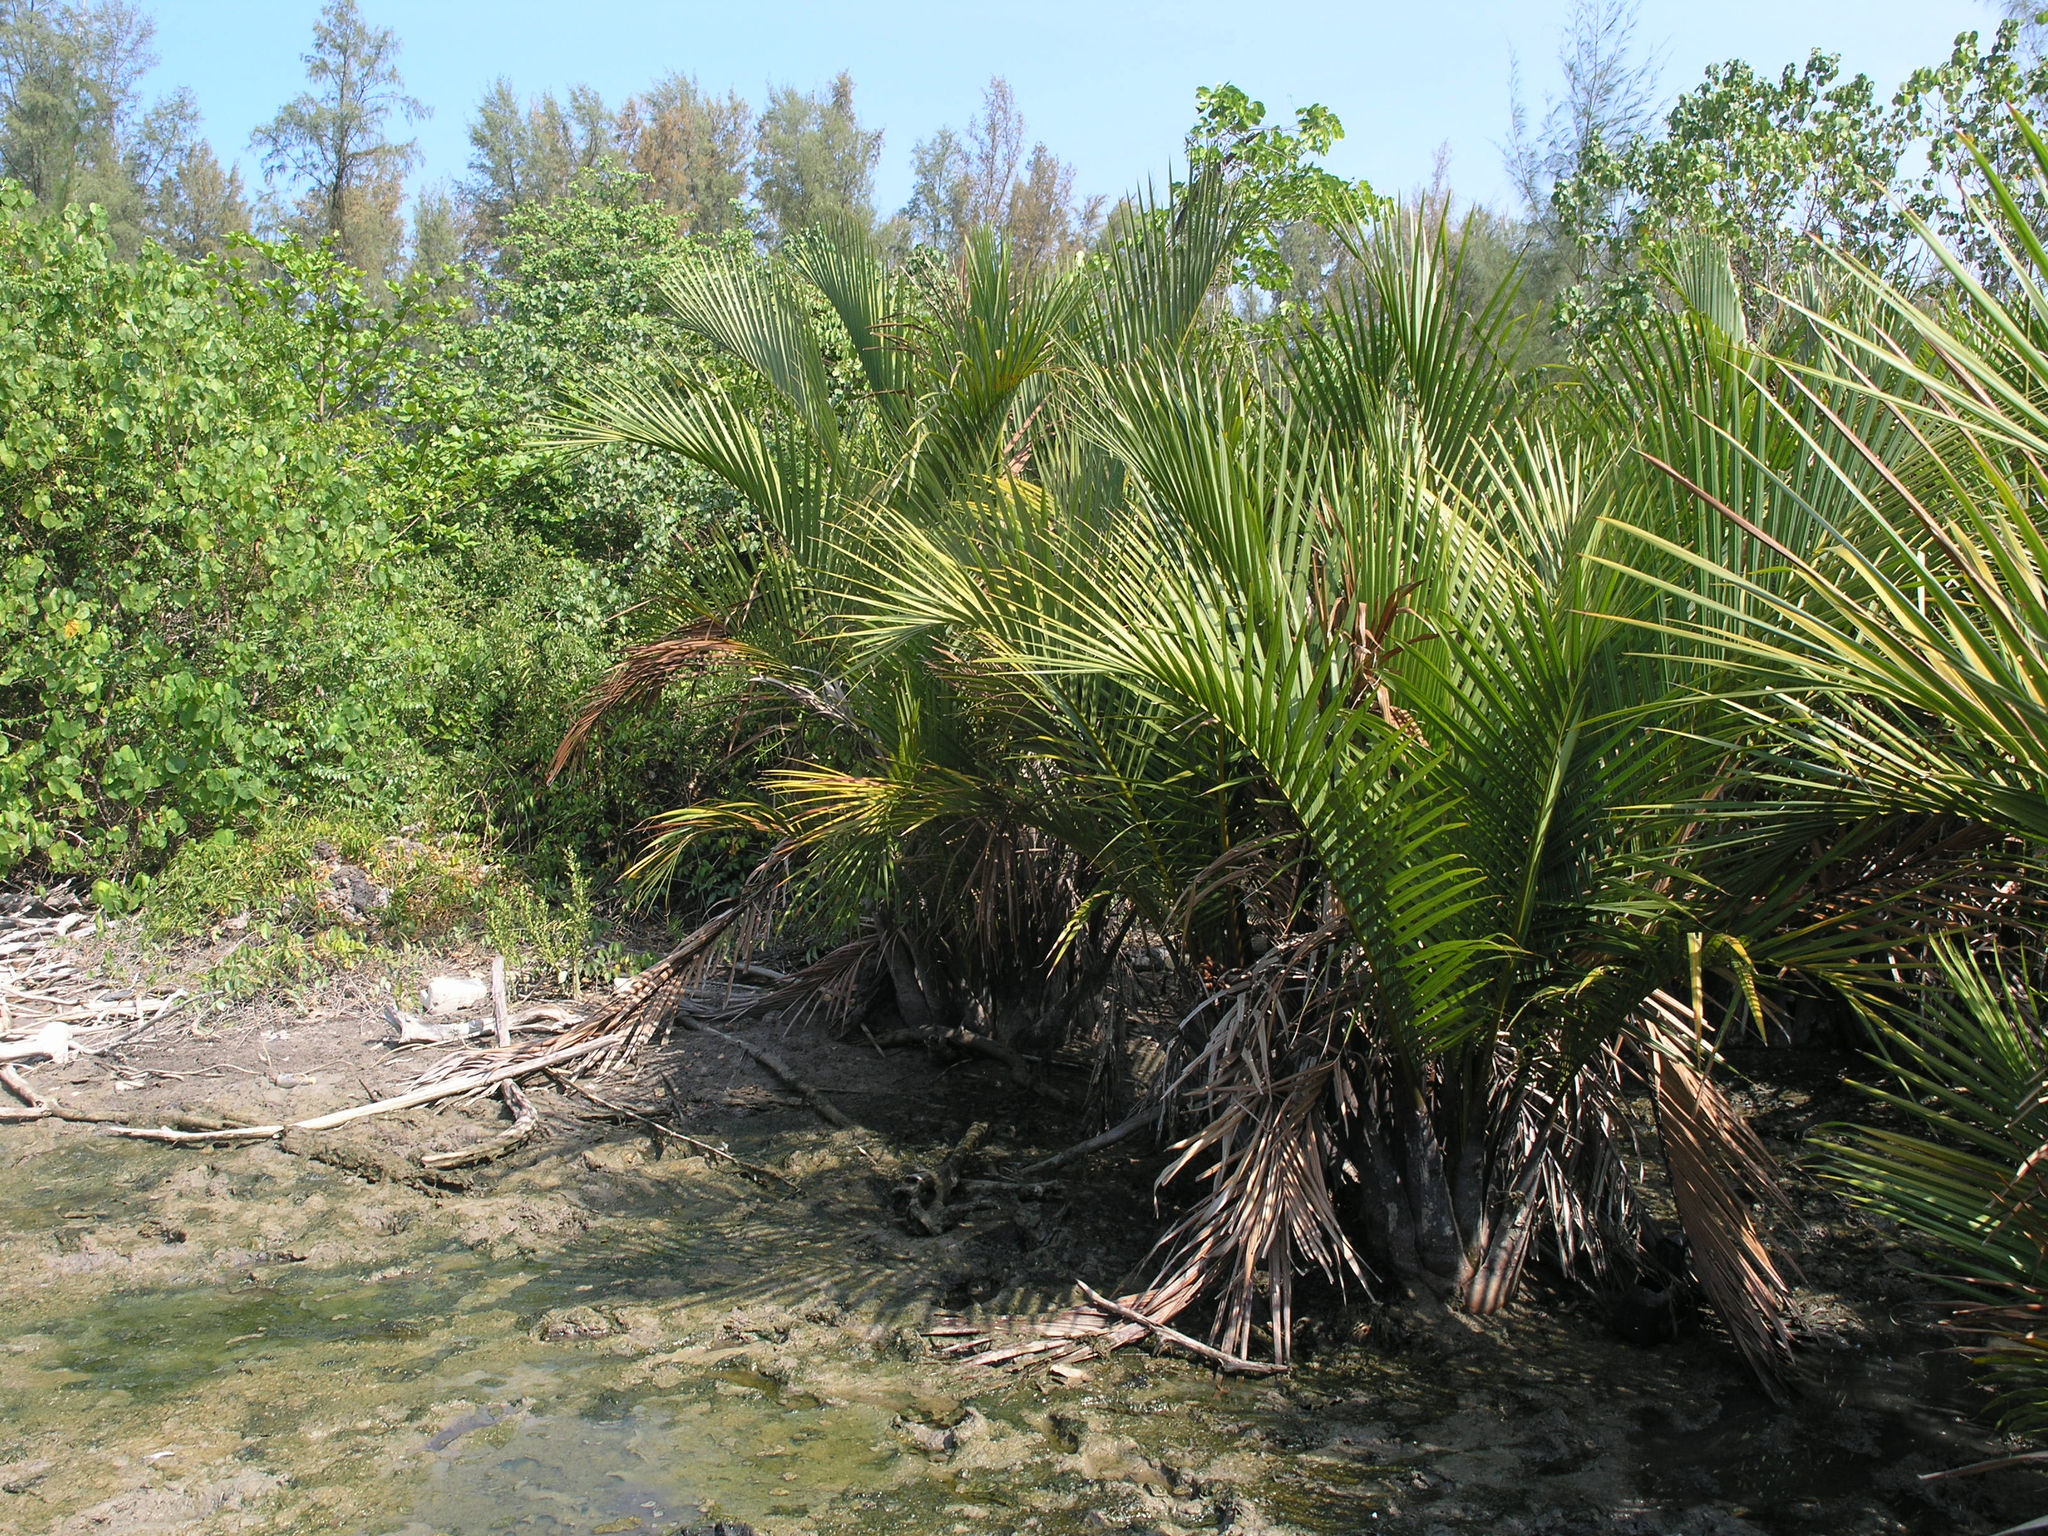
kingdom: Plantae
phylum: Tracheophyta
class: Liliopsida
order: Arecales
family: Arecaceae
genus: Nypa
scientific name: Nypa fruticans
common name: Mangrove palm
